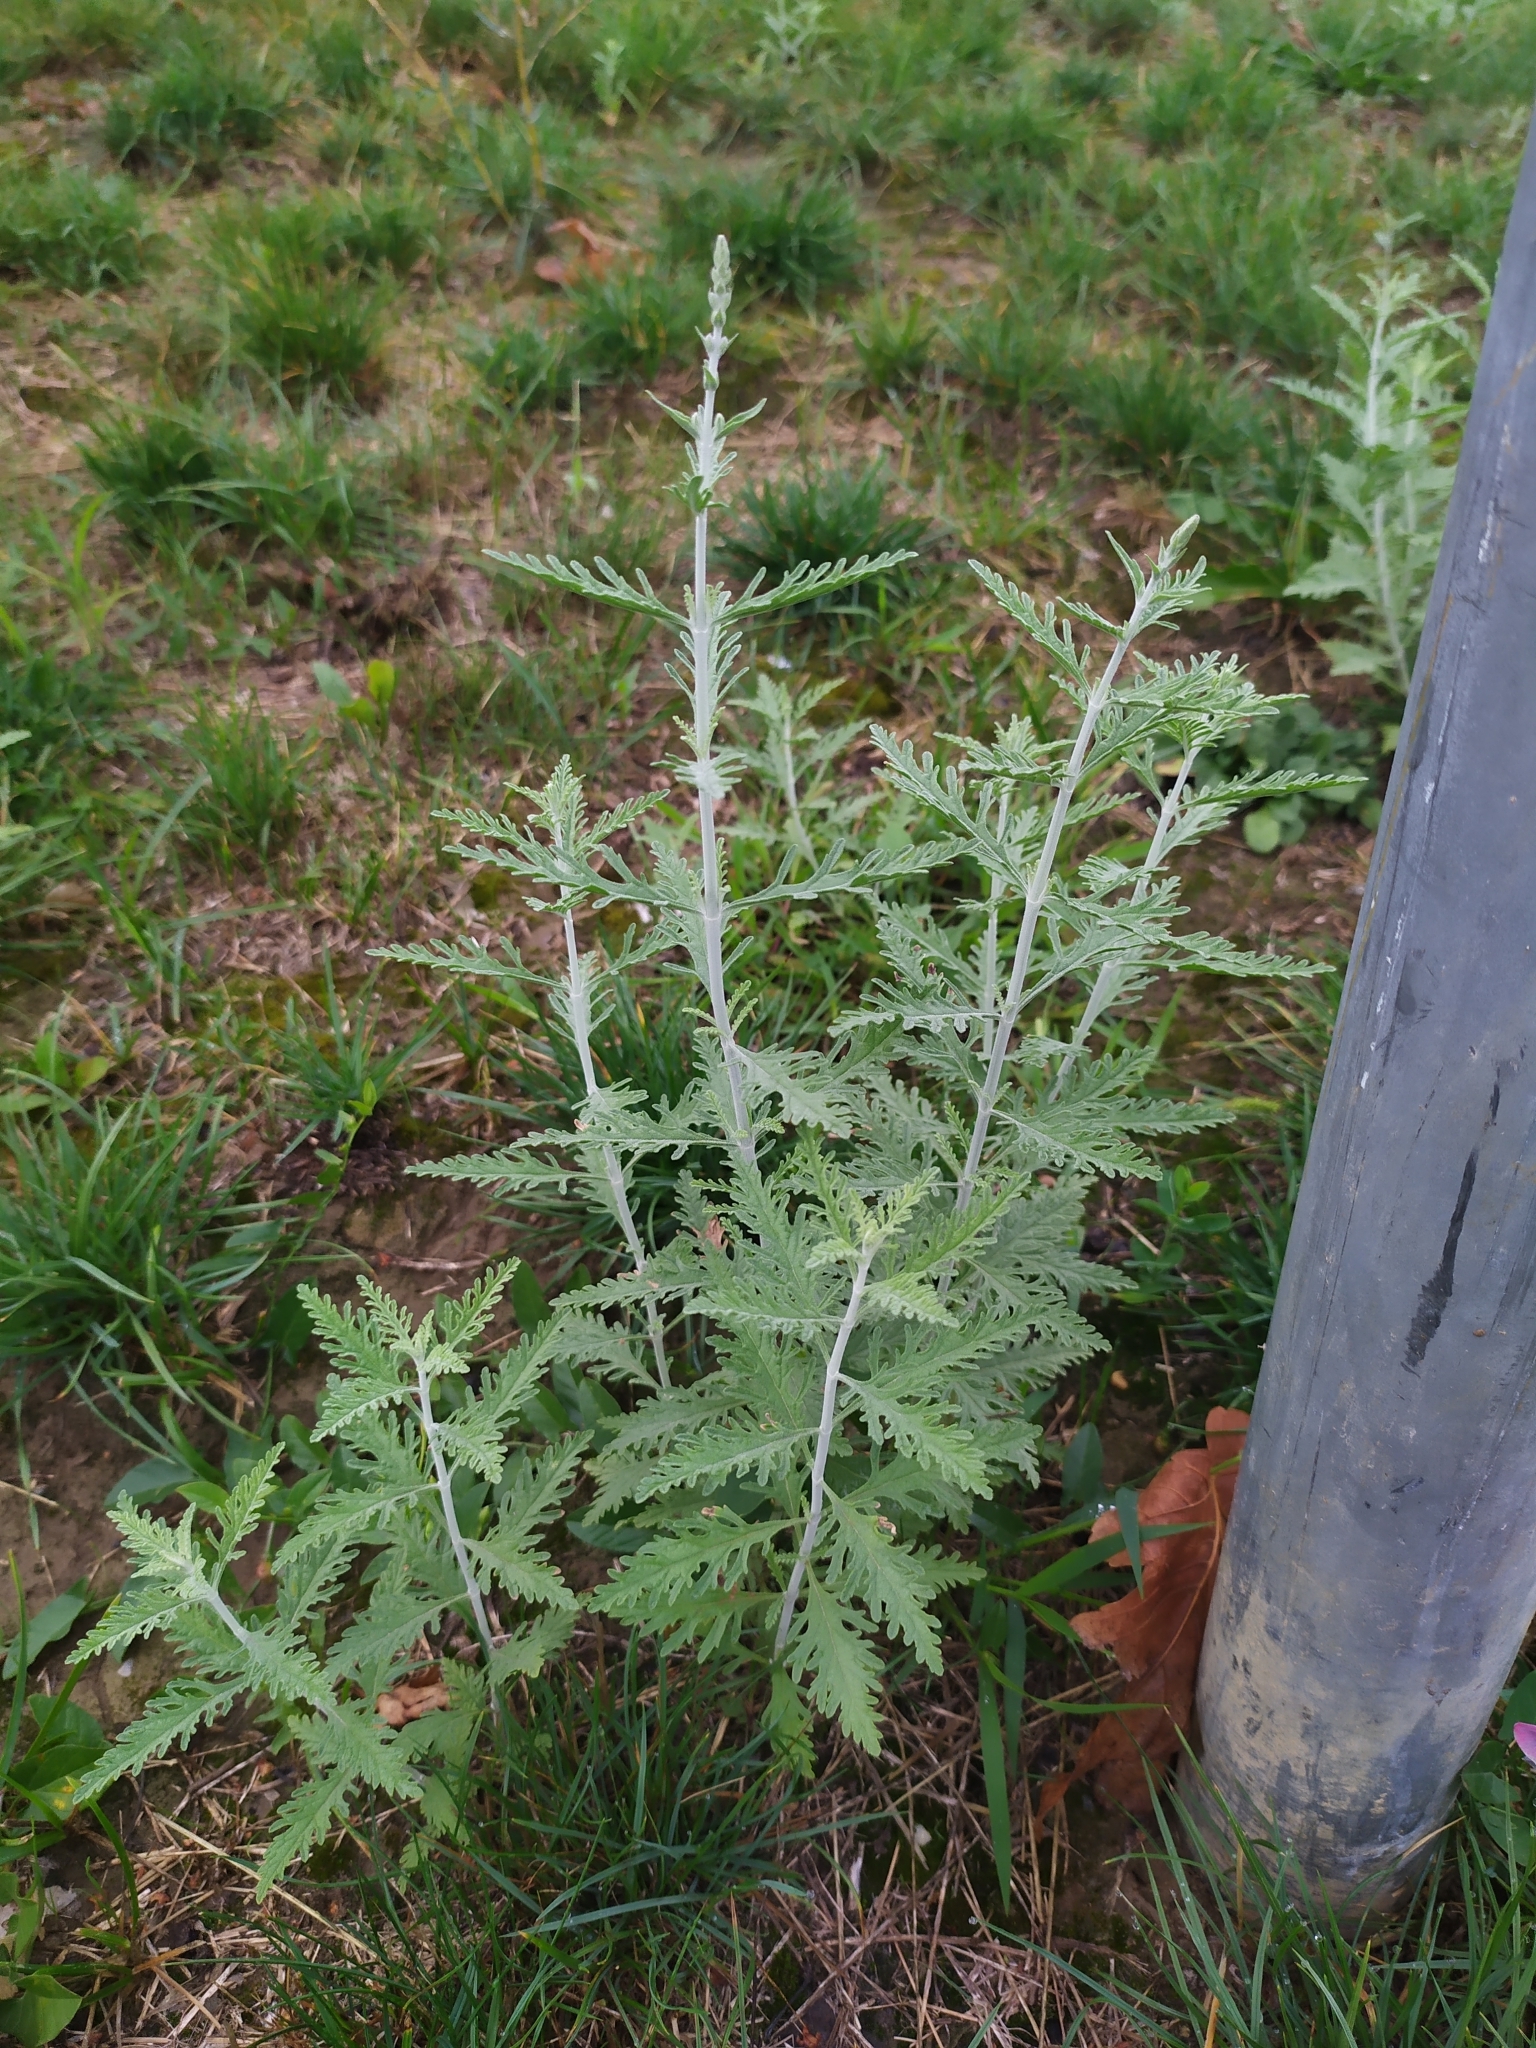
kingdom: Plantae
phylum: Tracheophyta
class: Magnoliopsida
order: Lamiales
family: Lamiaceae
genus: Salvia
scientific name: Salvia
